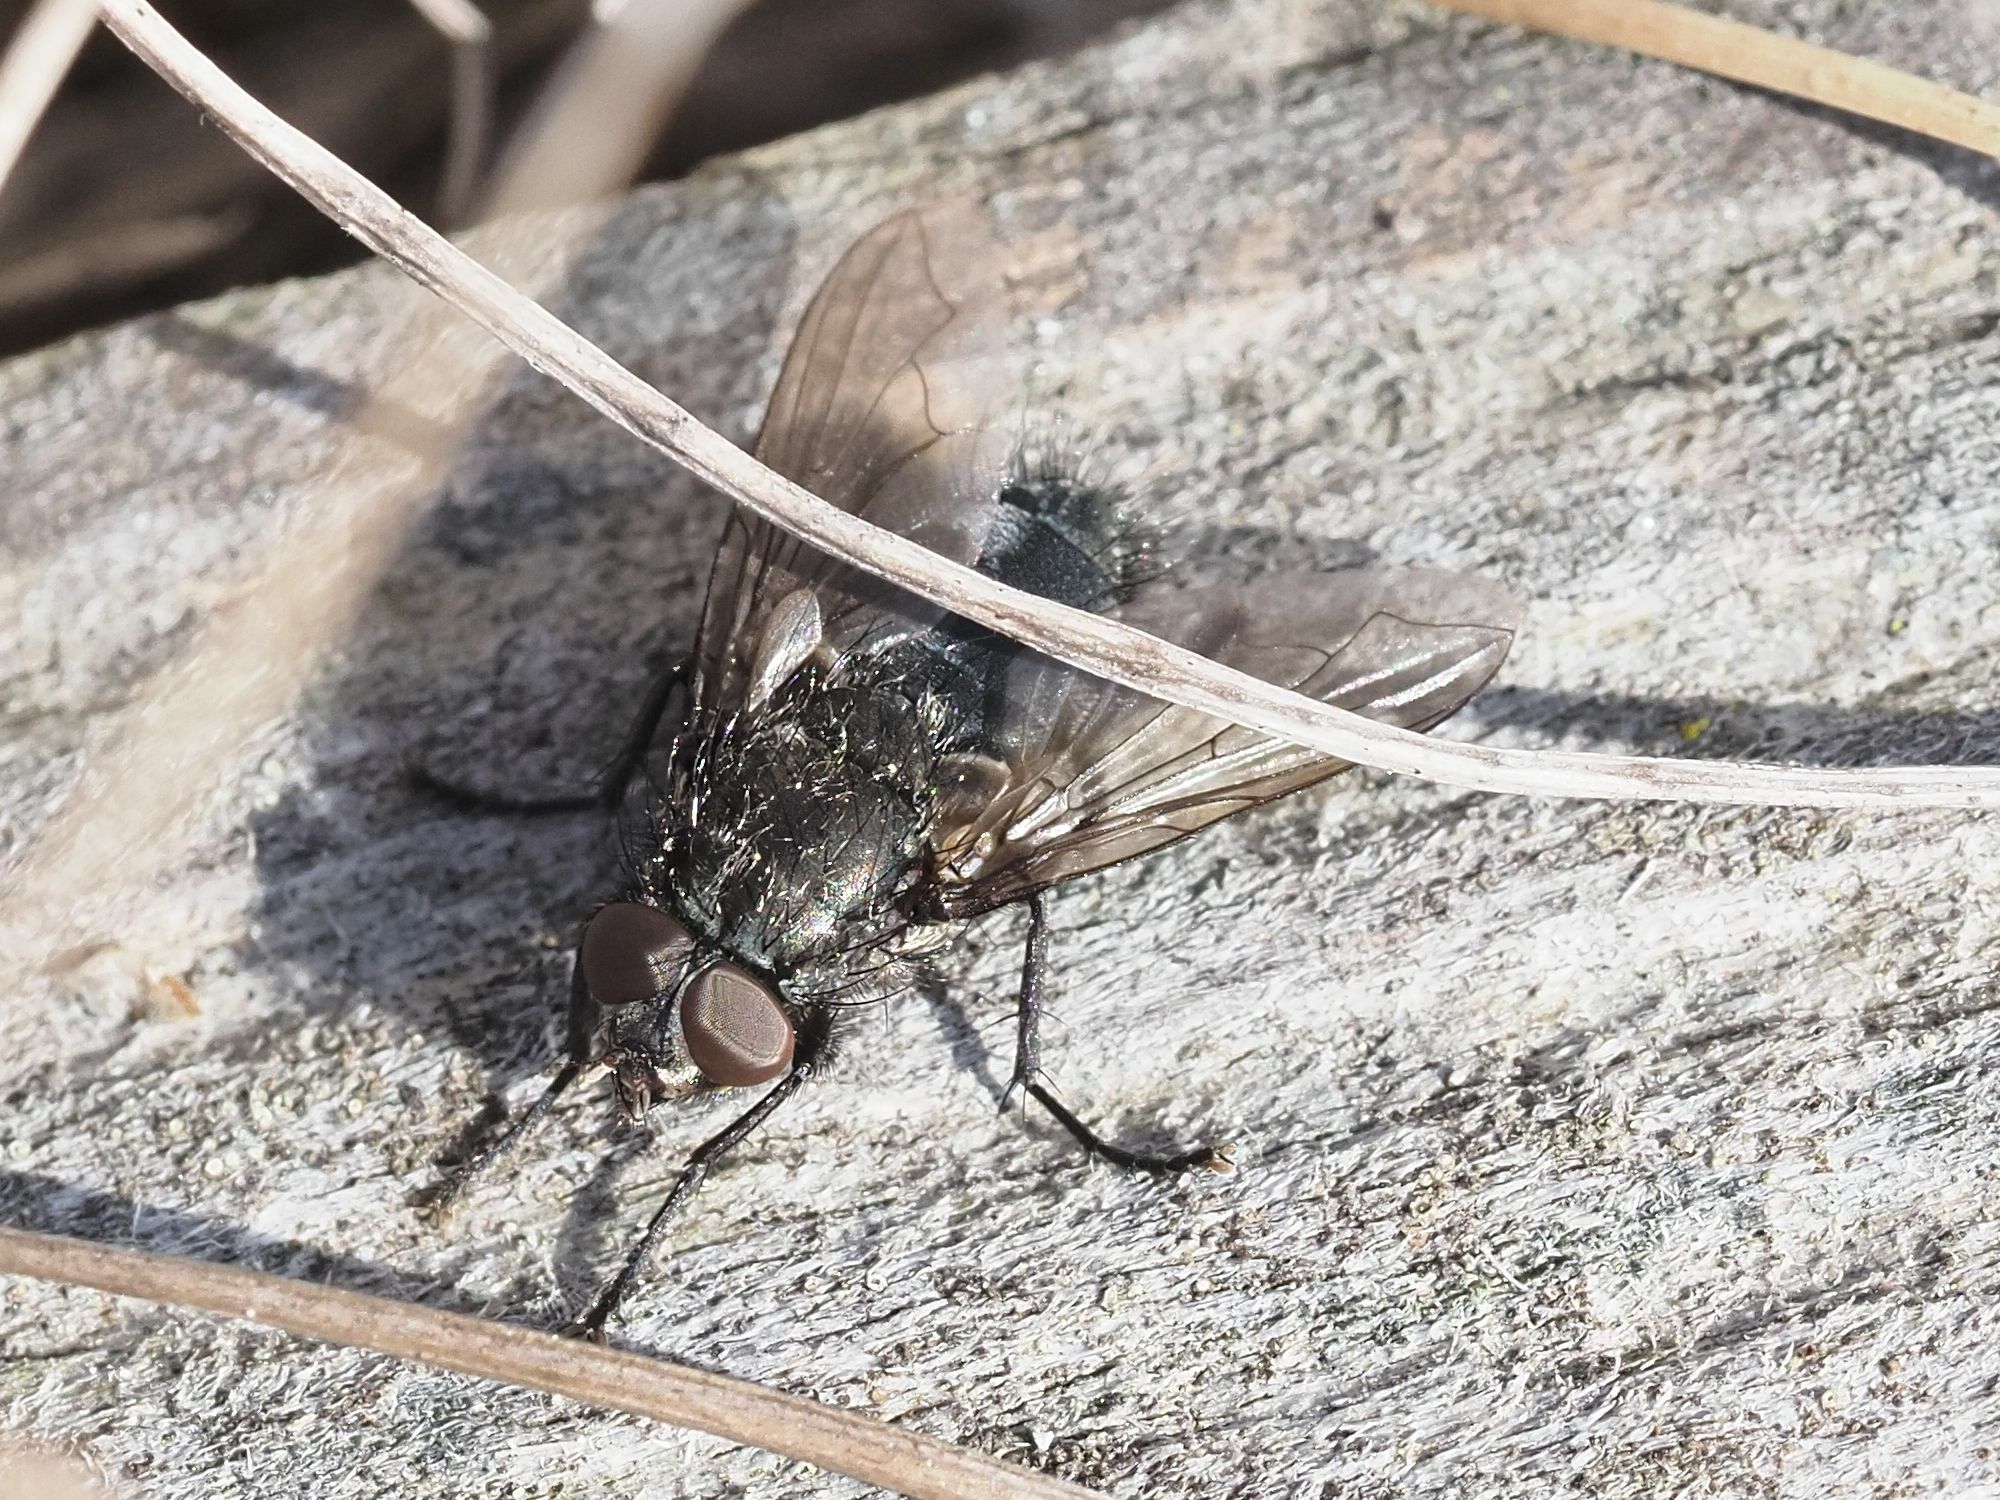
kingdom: Animalia
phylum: Arthropoda
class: Insecta
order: Diptera
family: Polleniidae
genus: Pollenia
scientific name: Pollenia vagabunda
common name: Vagabund cluster fly
